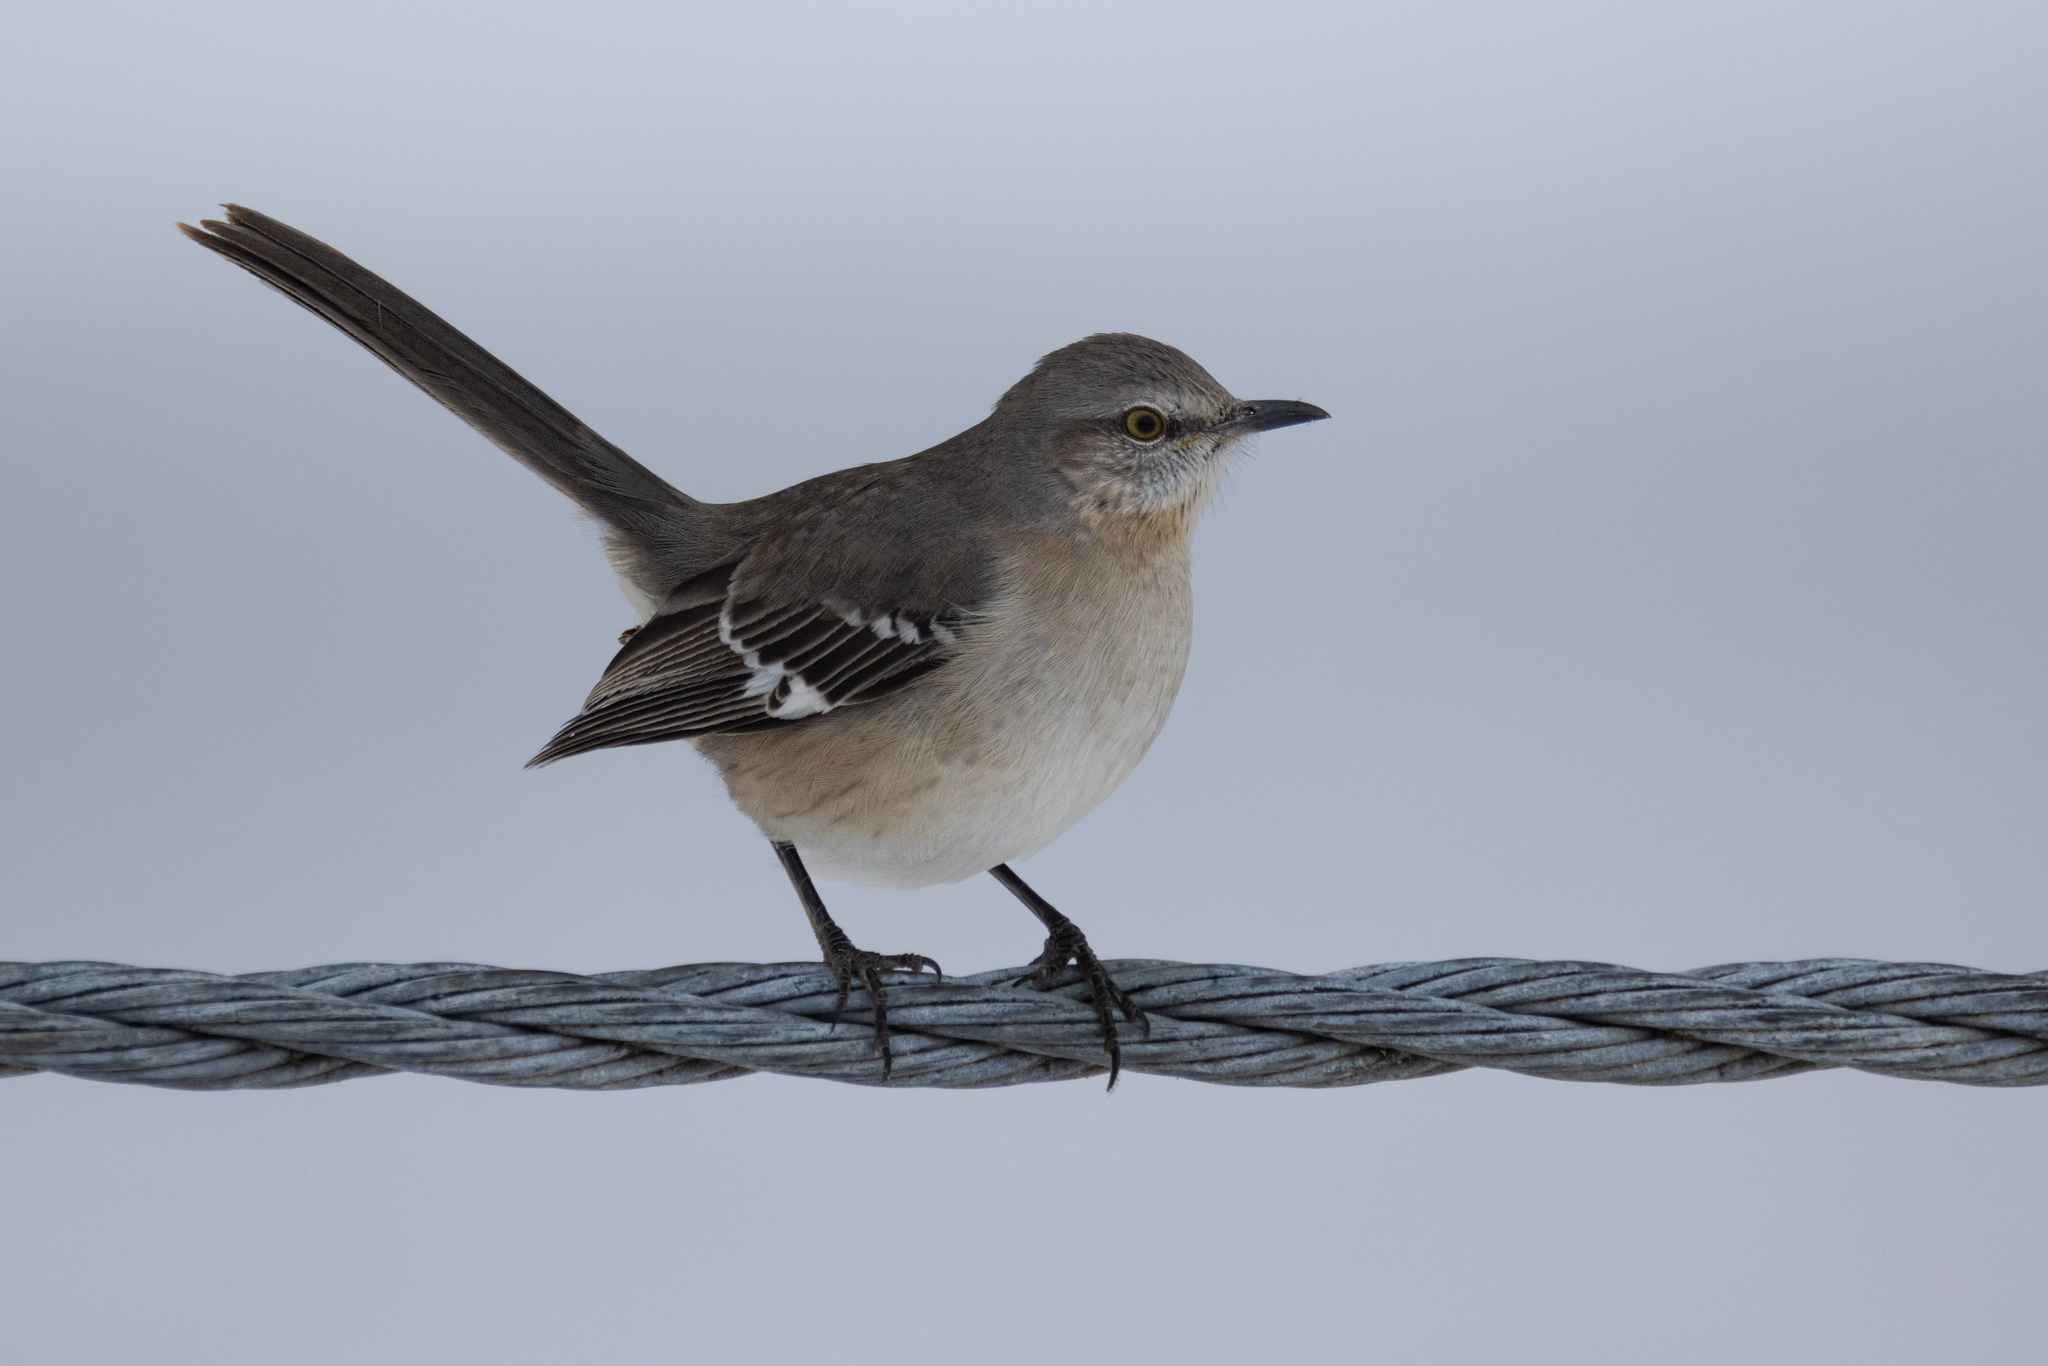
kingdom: Animalia
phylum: Chordata
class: Aves
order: Passeriformes
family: Mimidae
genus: Mimus
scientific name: Mimus polyglottos
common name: Northern mockingbird
